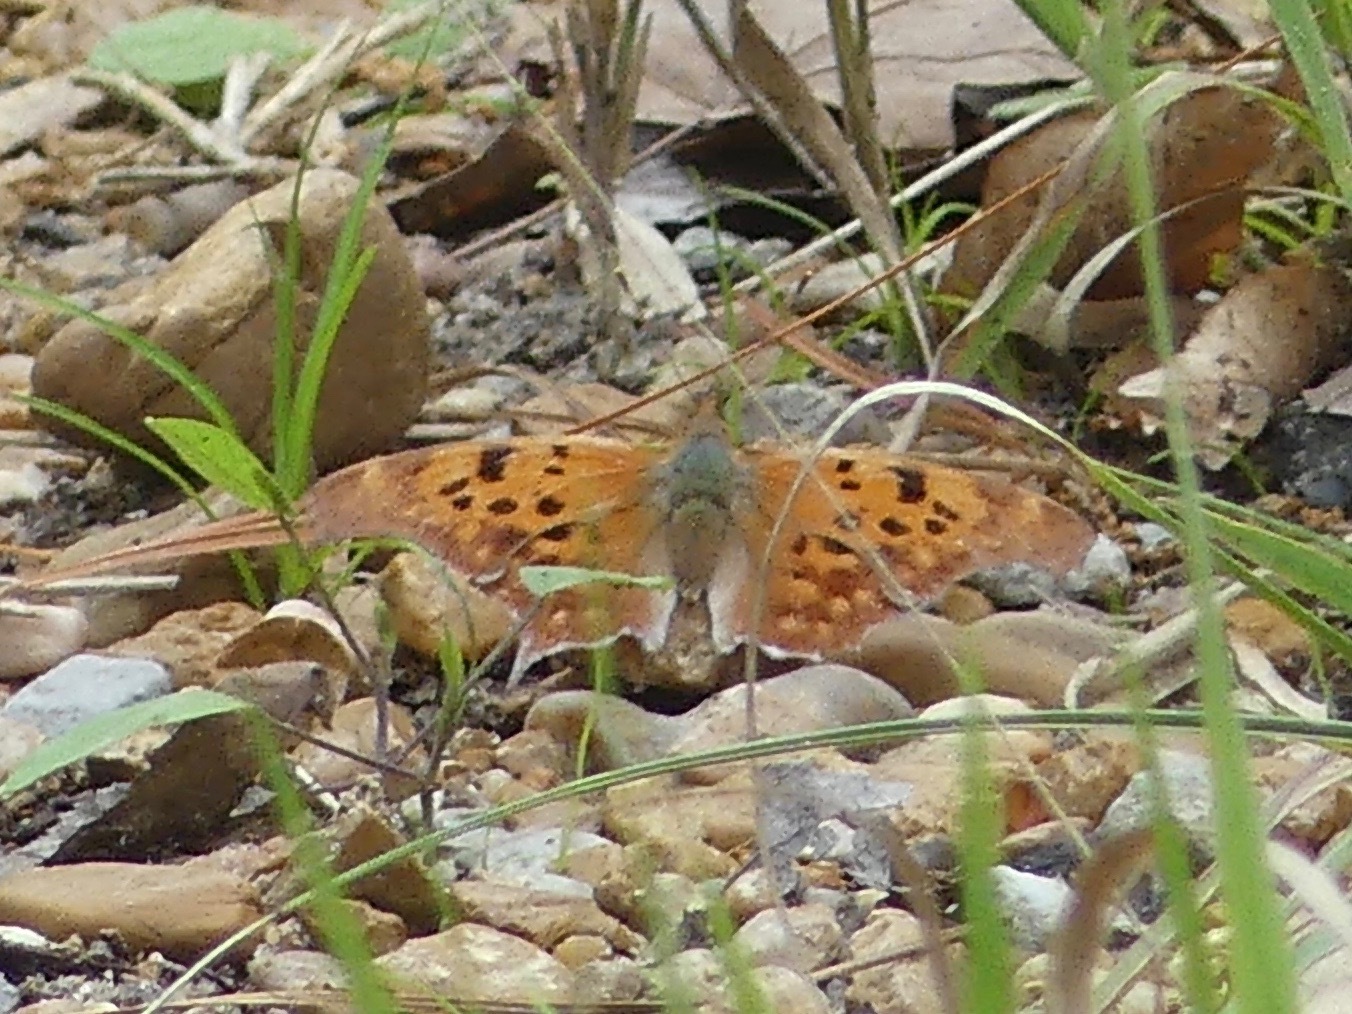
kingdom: Animalia
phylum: Arthropoda
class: Insecta
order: Lepidoptera
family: Nymphalidae
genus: Polygonia
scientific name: Polygonia interrogationis
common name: Question mark
